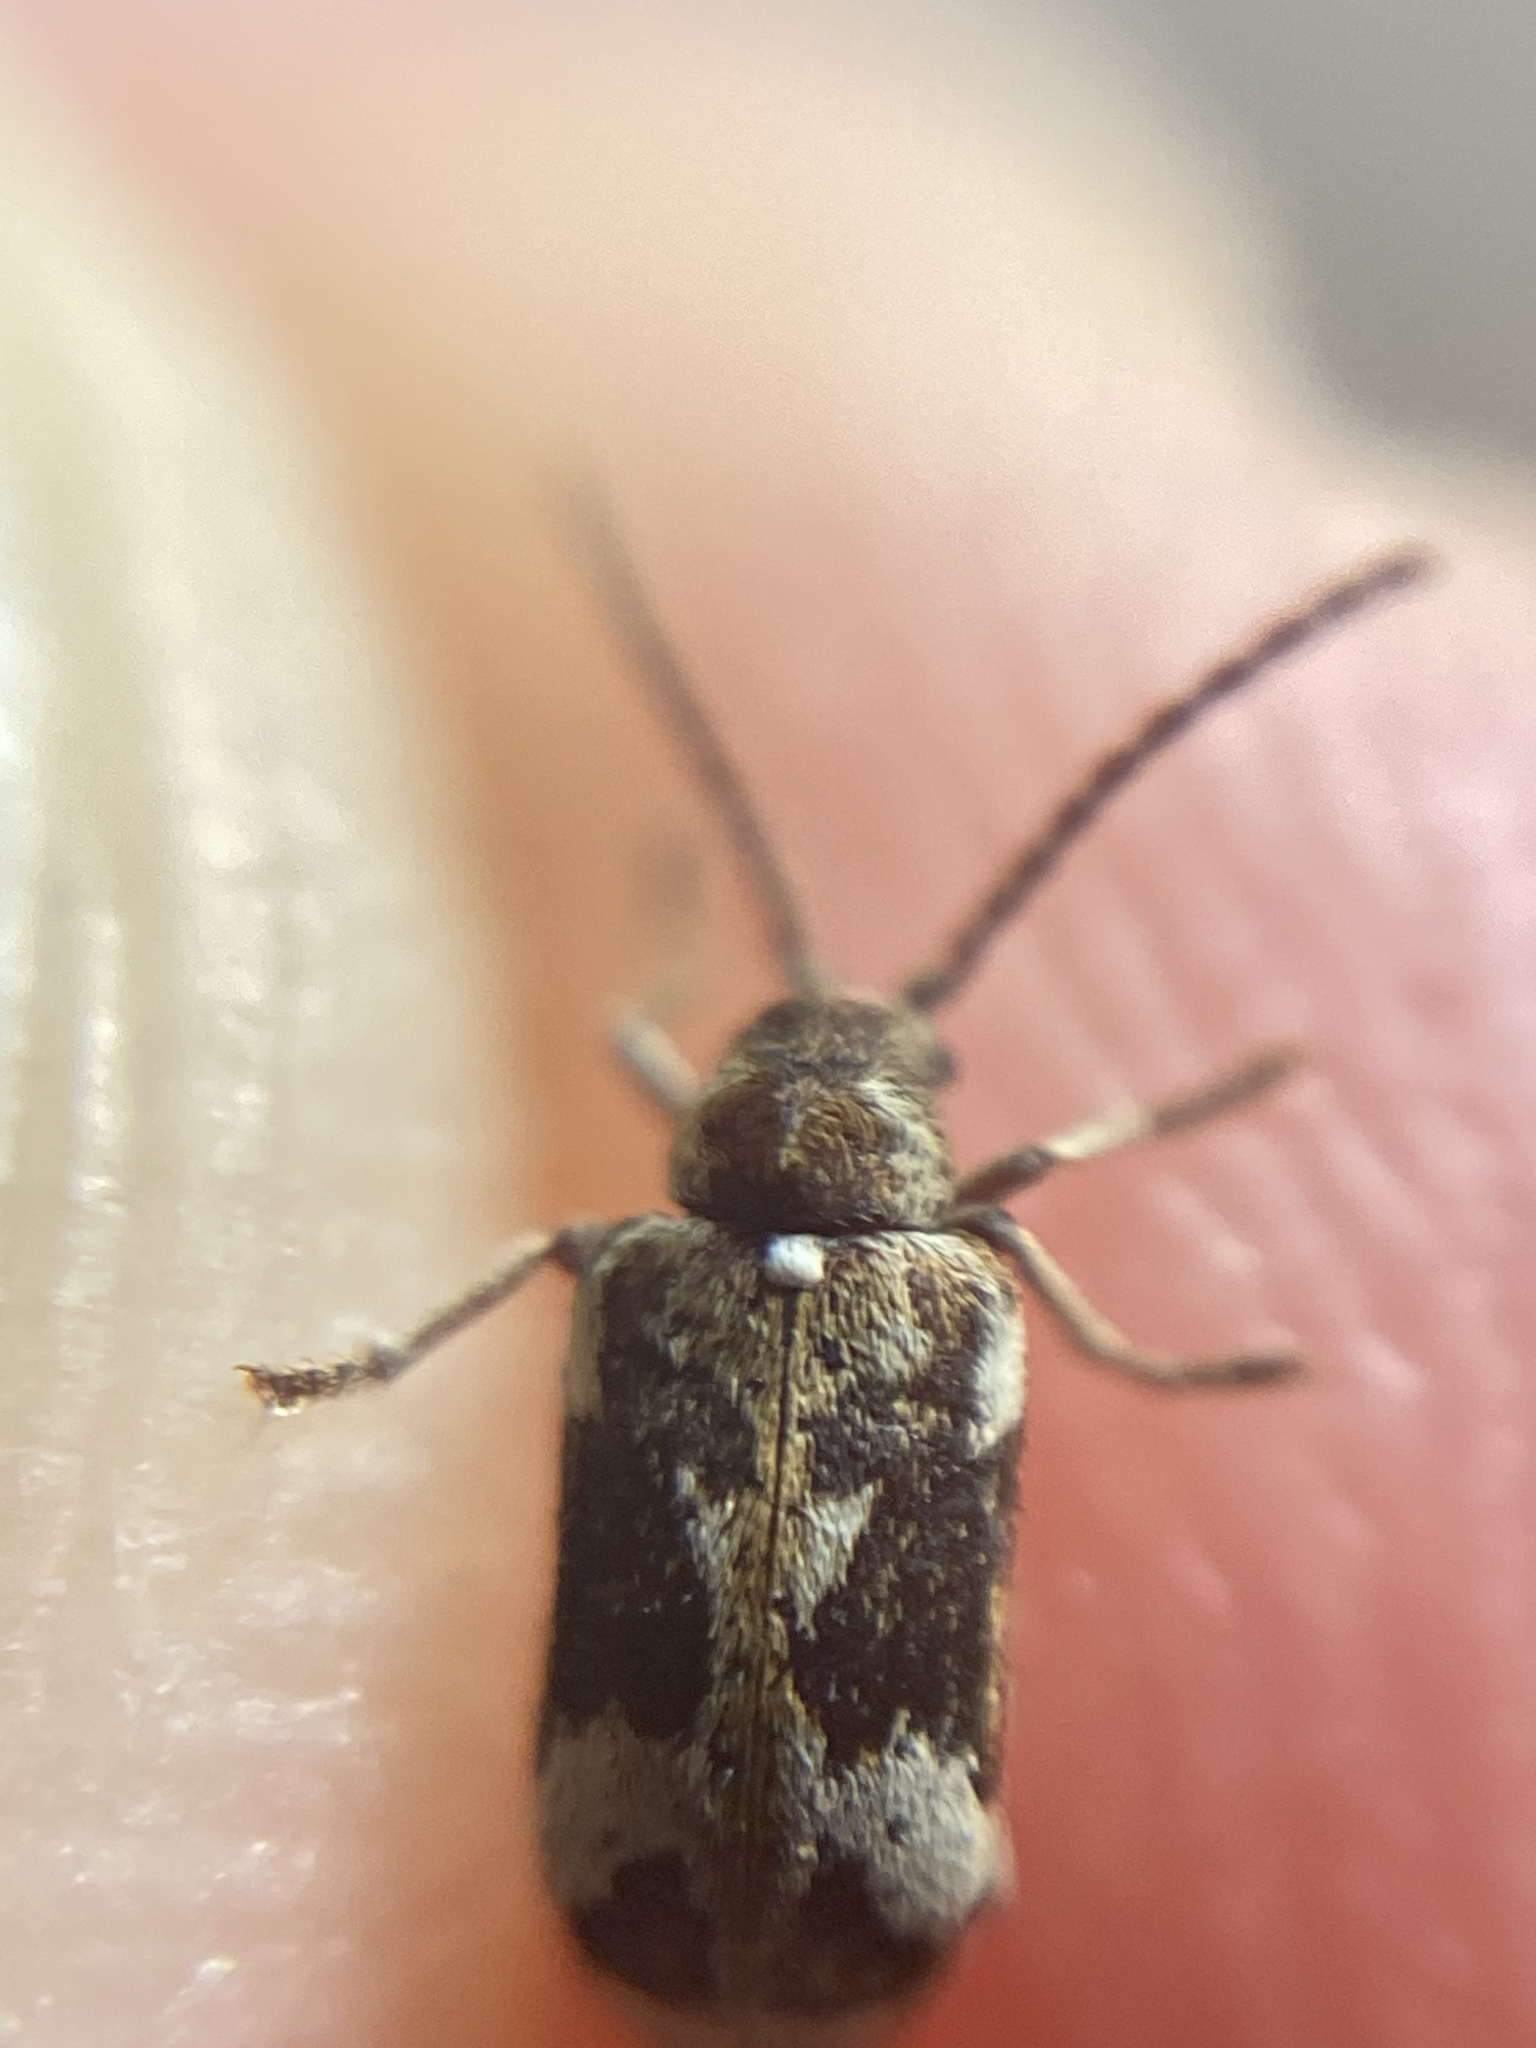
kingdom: Animalia
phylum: Arthropoda
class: Insecta
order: Coleoptera
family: Anobiidae
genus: Ptinomorphus
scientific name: Ptinomorphus imperialis
